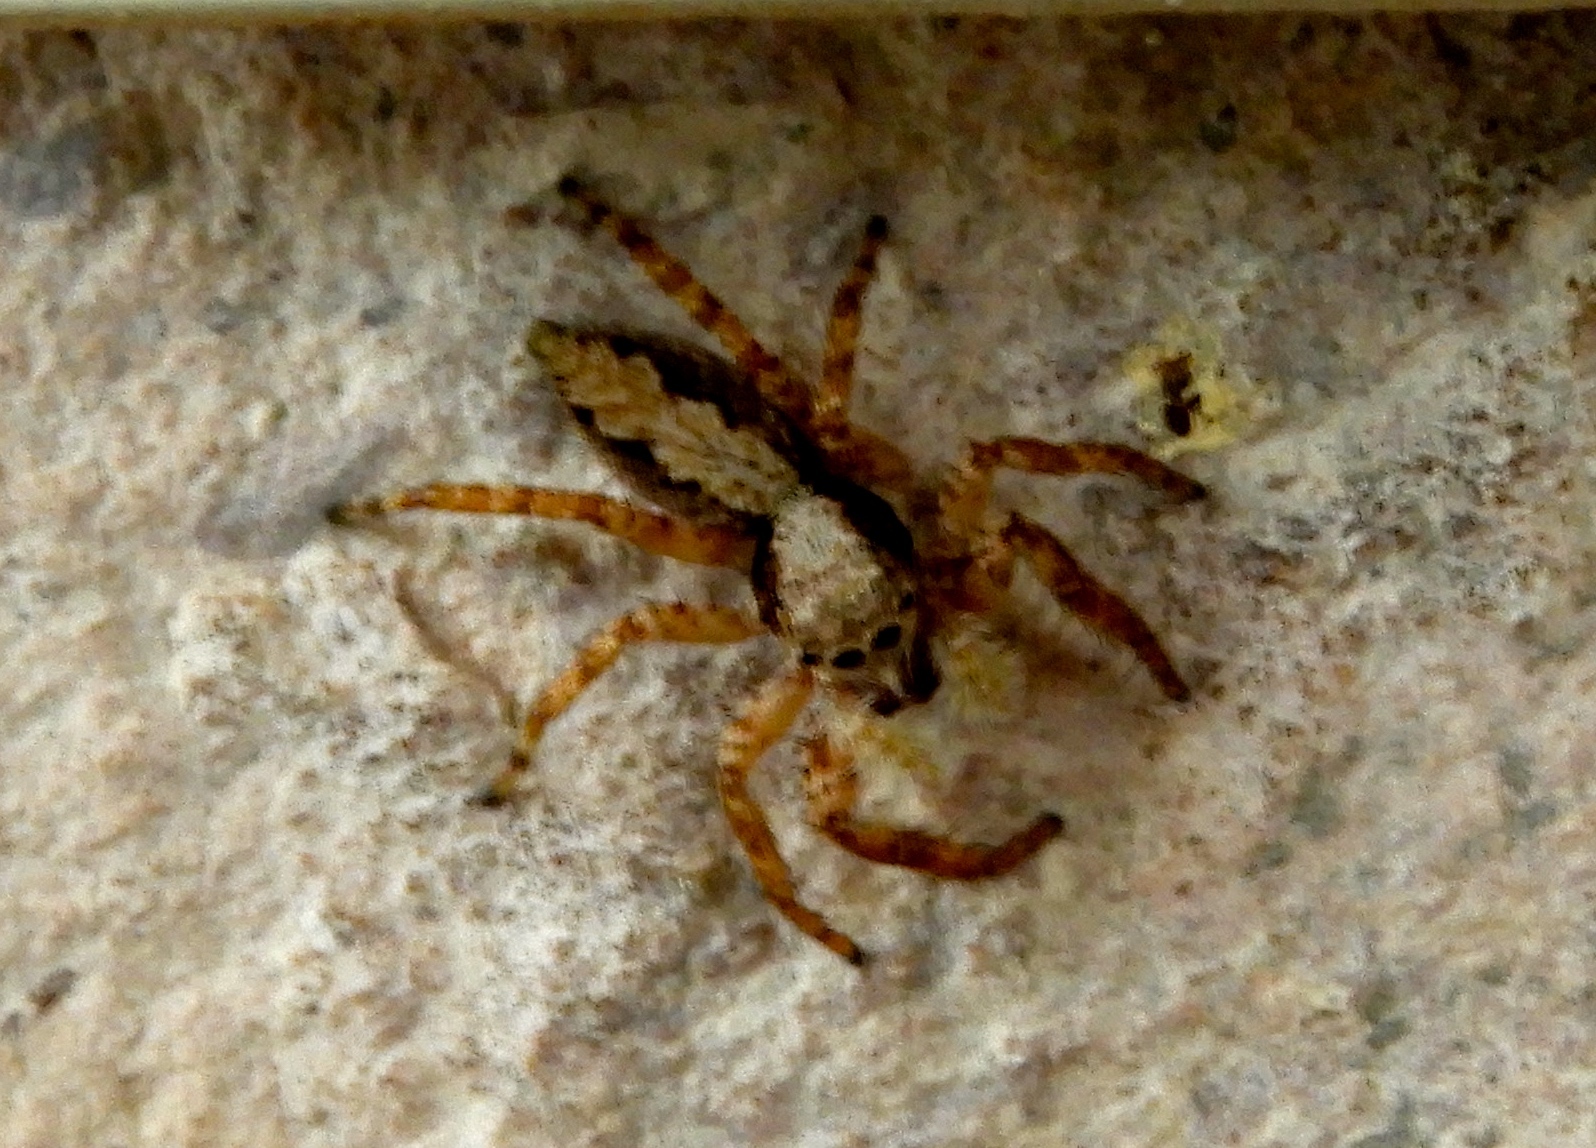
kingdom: Animalia
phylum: Arthropoda
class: Arachnida
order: Araneae
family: Salticidae
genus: Balmaceda
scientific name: Balmaceda
